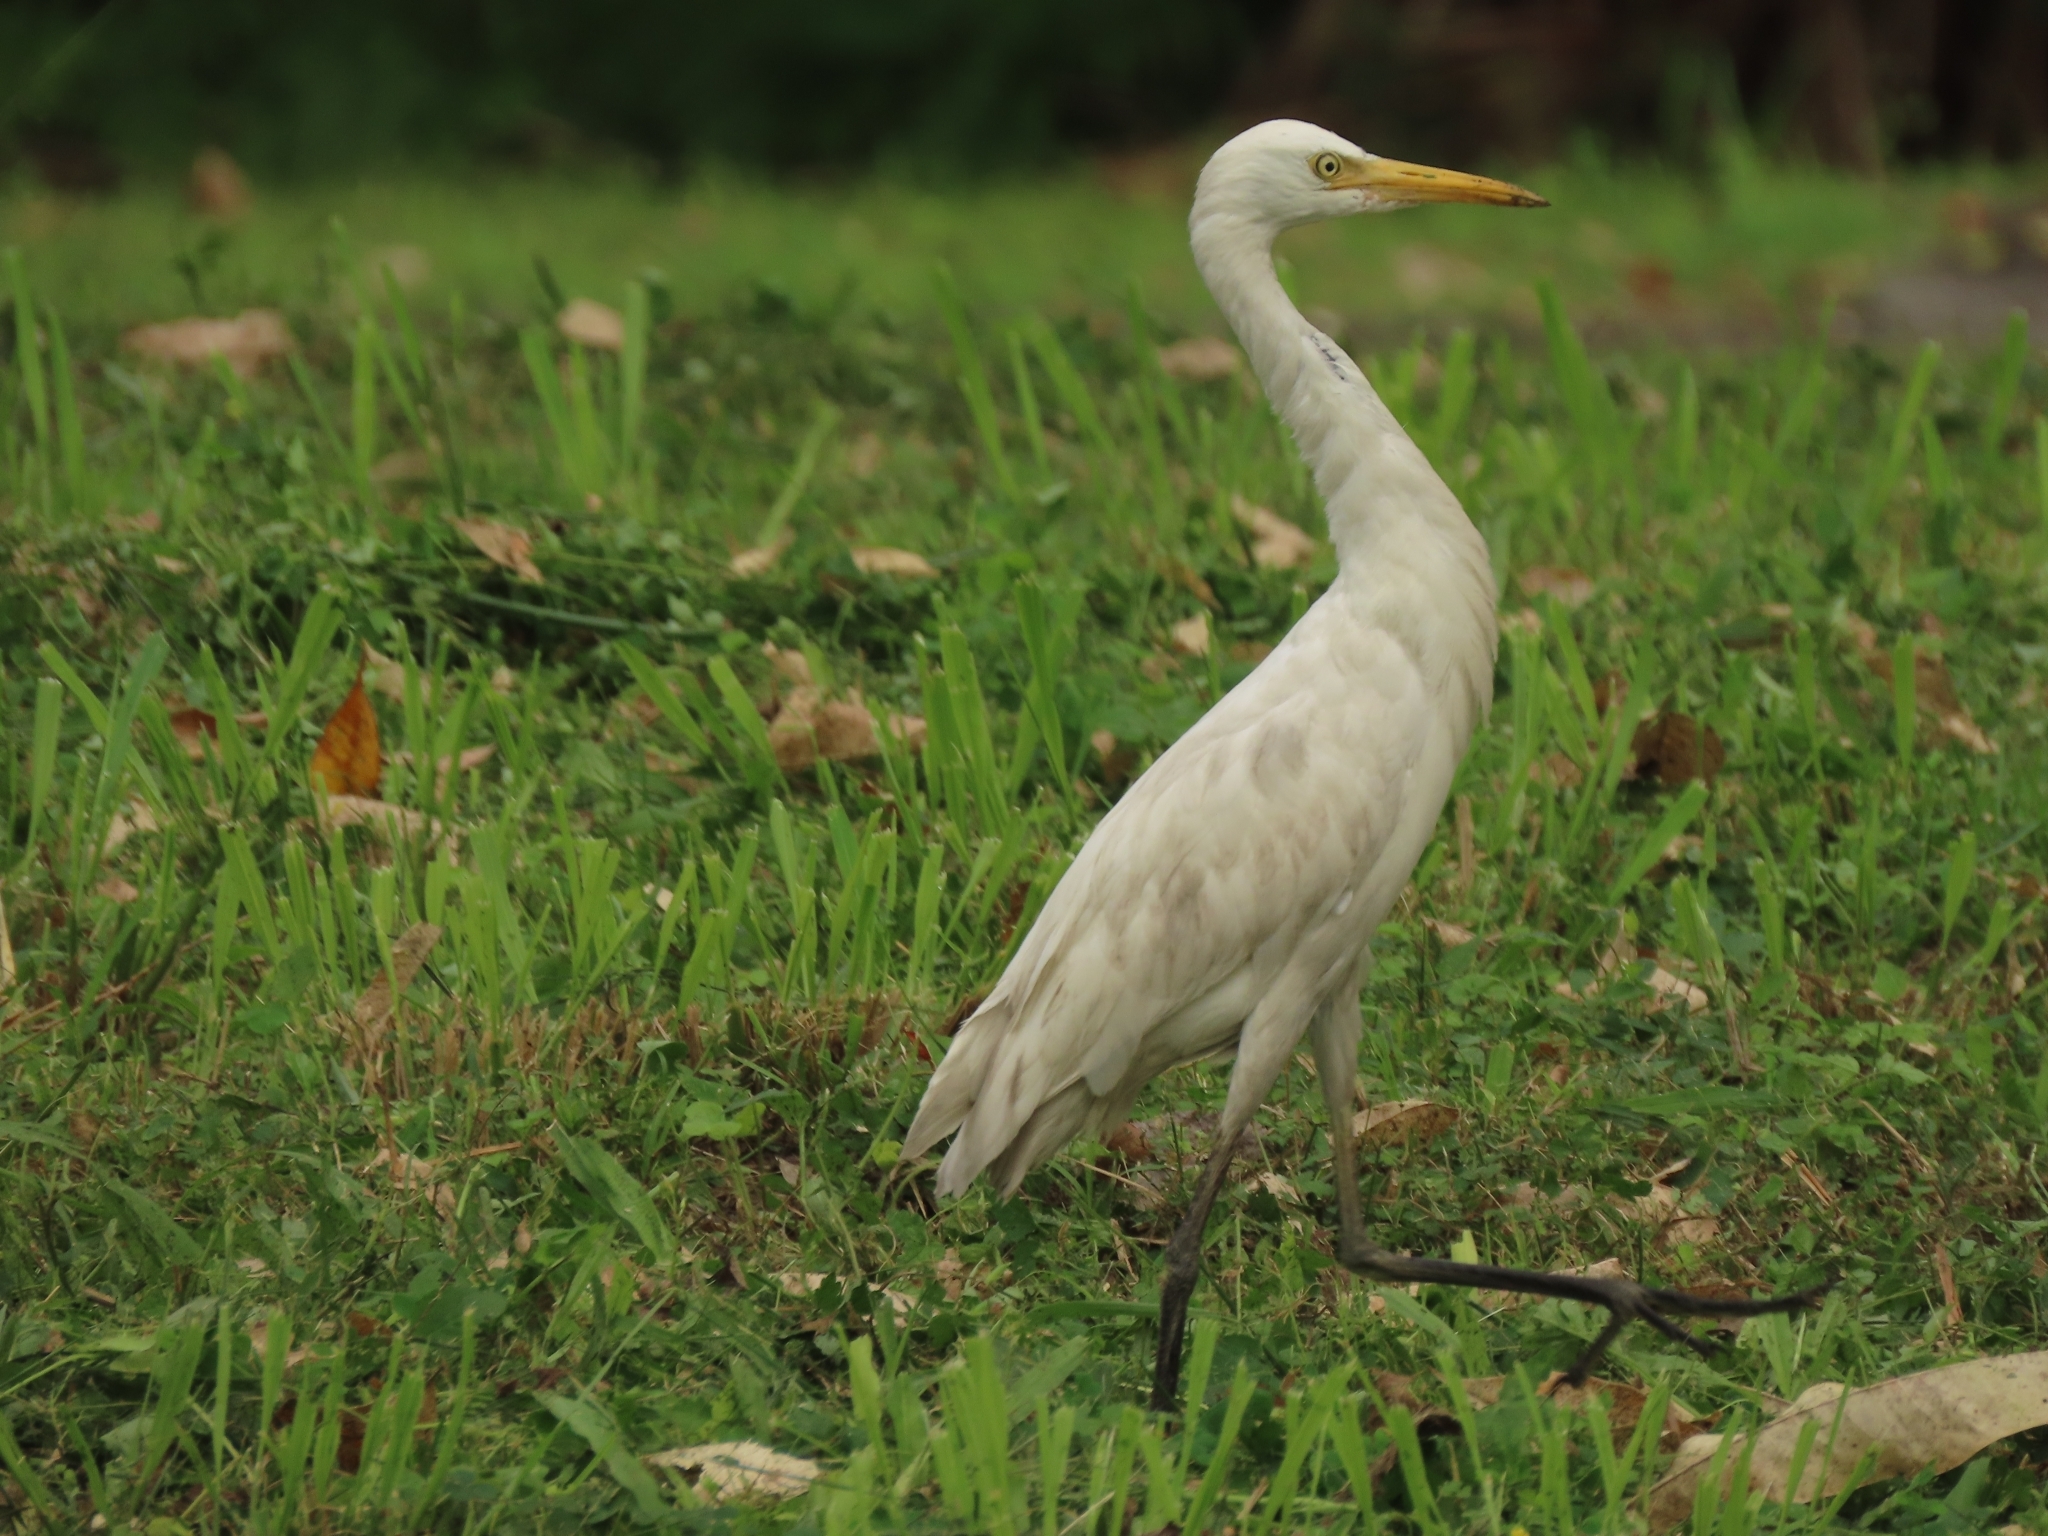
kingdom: Animalia
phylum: Chordata
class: Aves
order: Pelecaniformes
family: Ardeidae
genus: Bubulcus
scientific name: Bubulcus coromandus
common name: Eastern cattle egret
